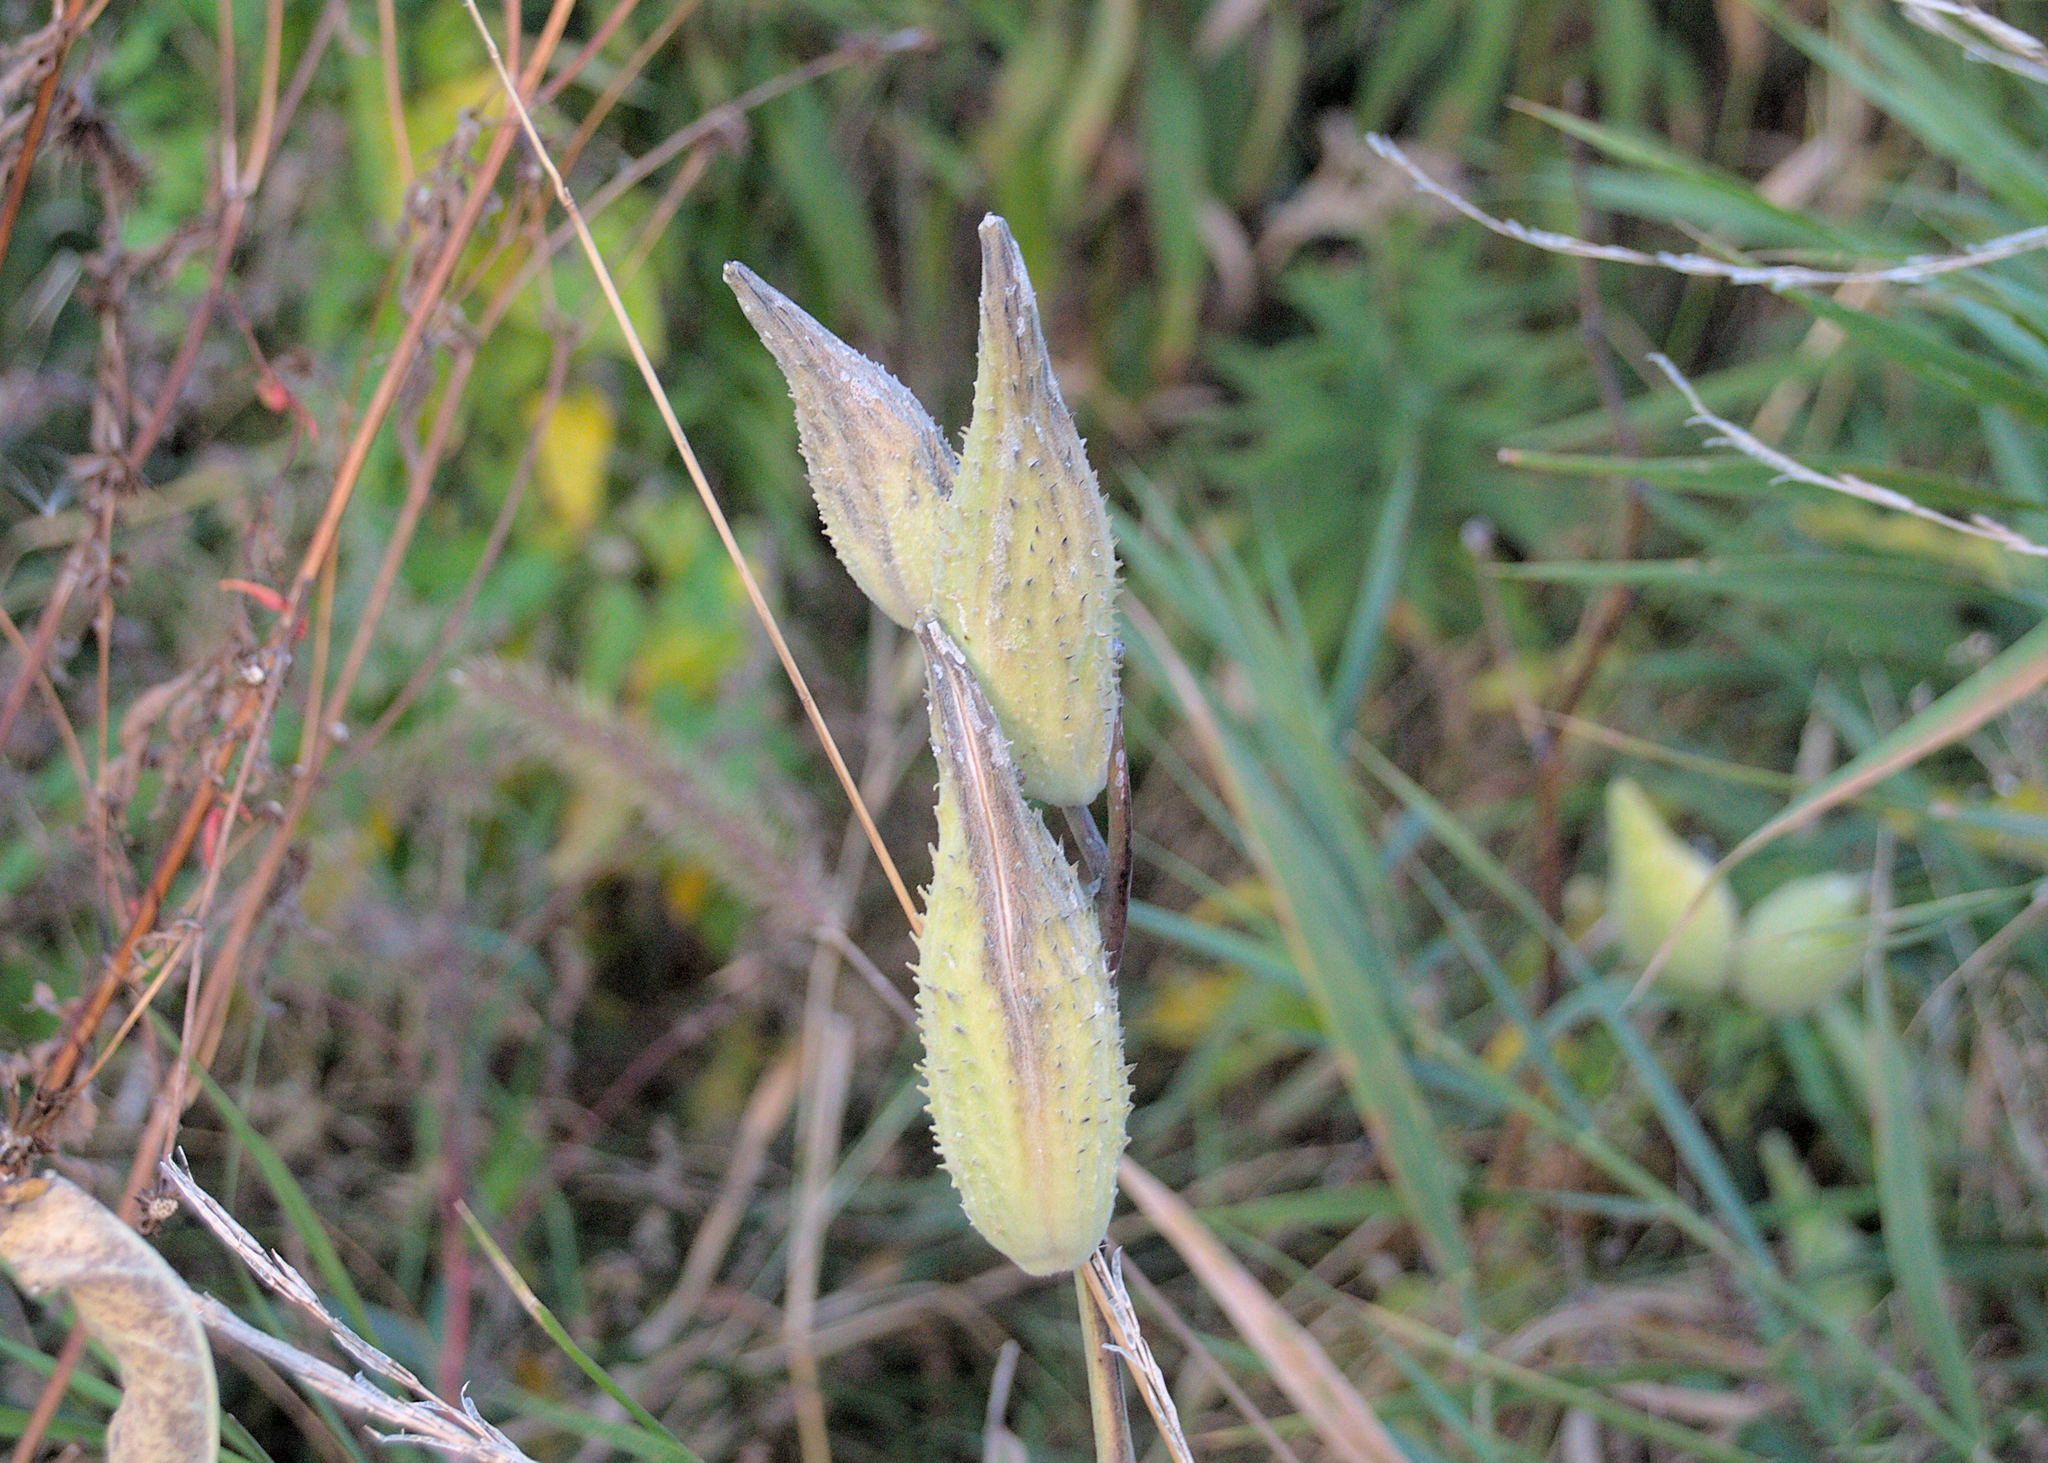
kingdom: Plantae
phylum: Tracheophyta
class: Magnoliopsida
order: Gentianales
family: Apocynaceae
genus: Asclepias
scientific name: Asclepias syriaca
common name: Common milkweed
